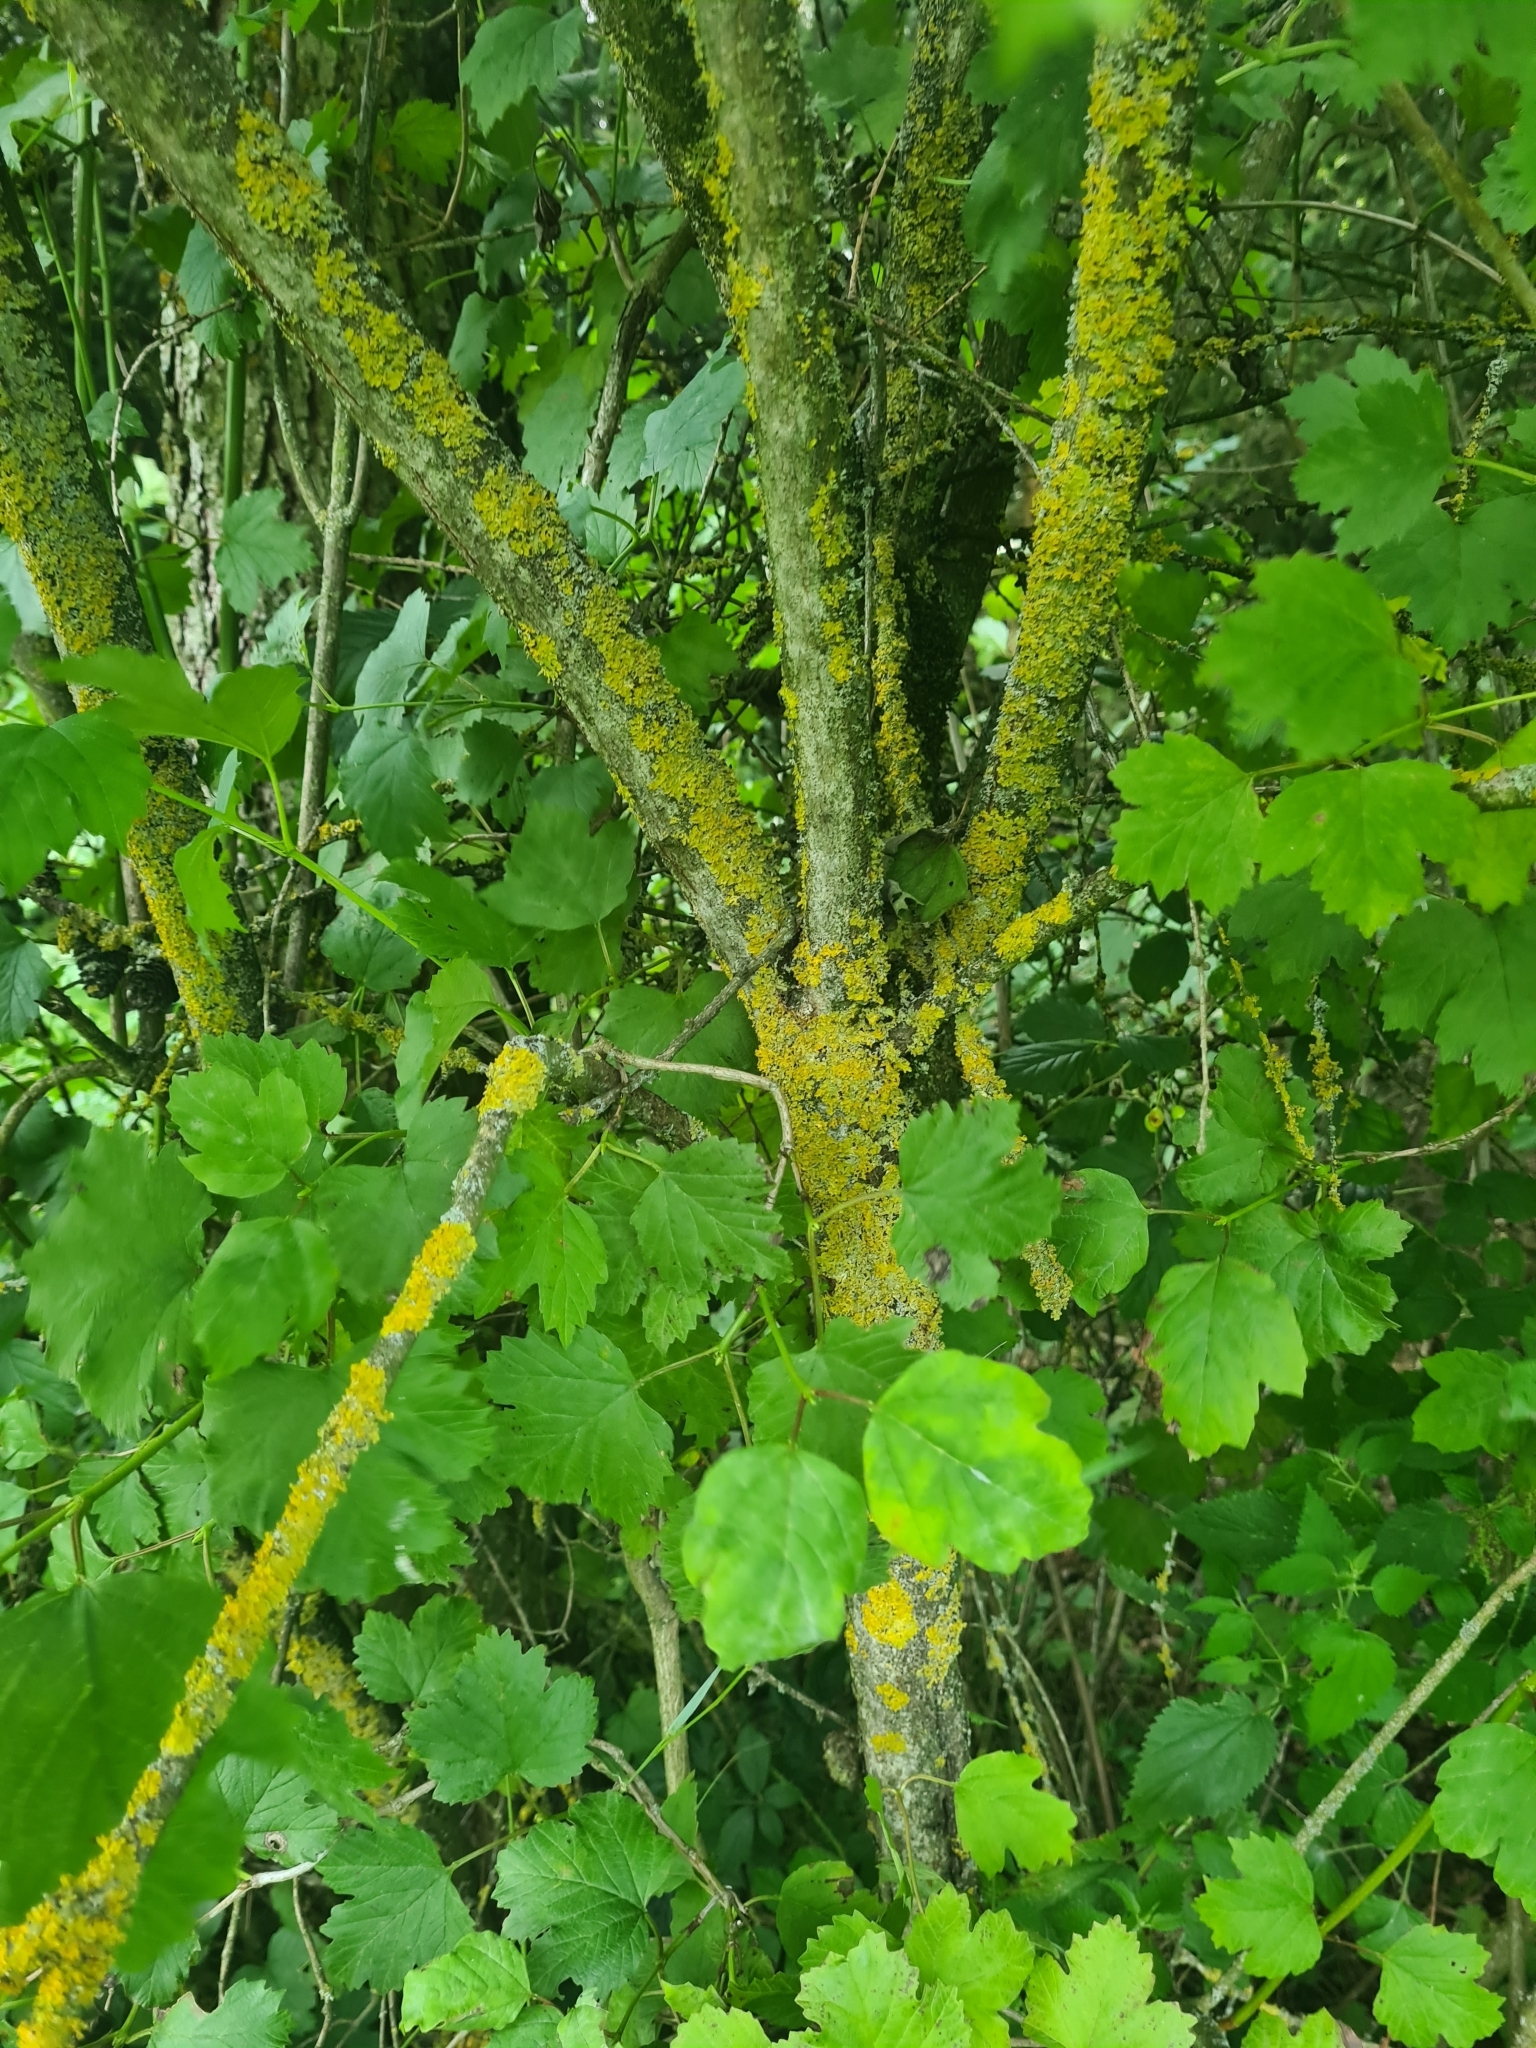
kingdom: Plantae
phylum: Tracheophyta
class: Magnoliopsida
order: Dipsacales
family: Viburnaceae
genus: Viburnum
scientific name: Viburnum opulus
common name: Guelder-rose
